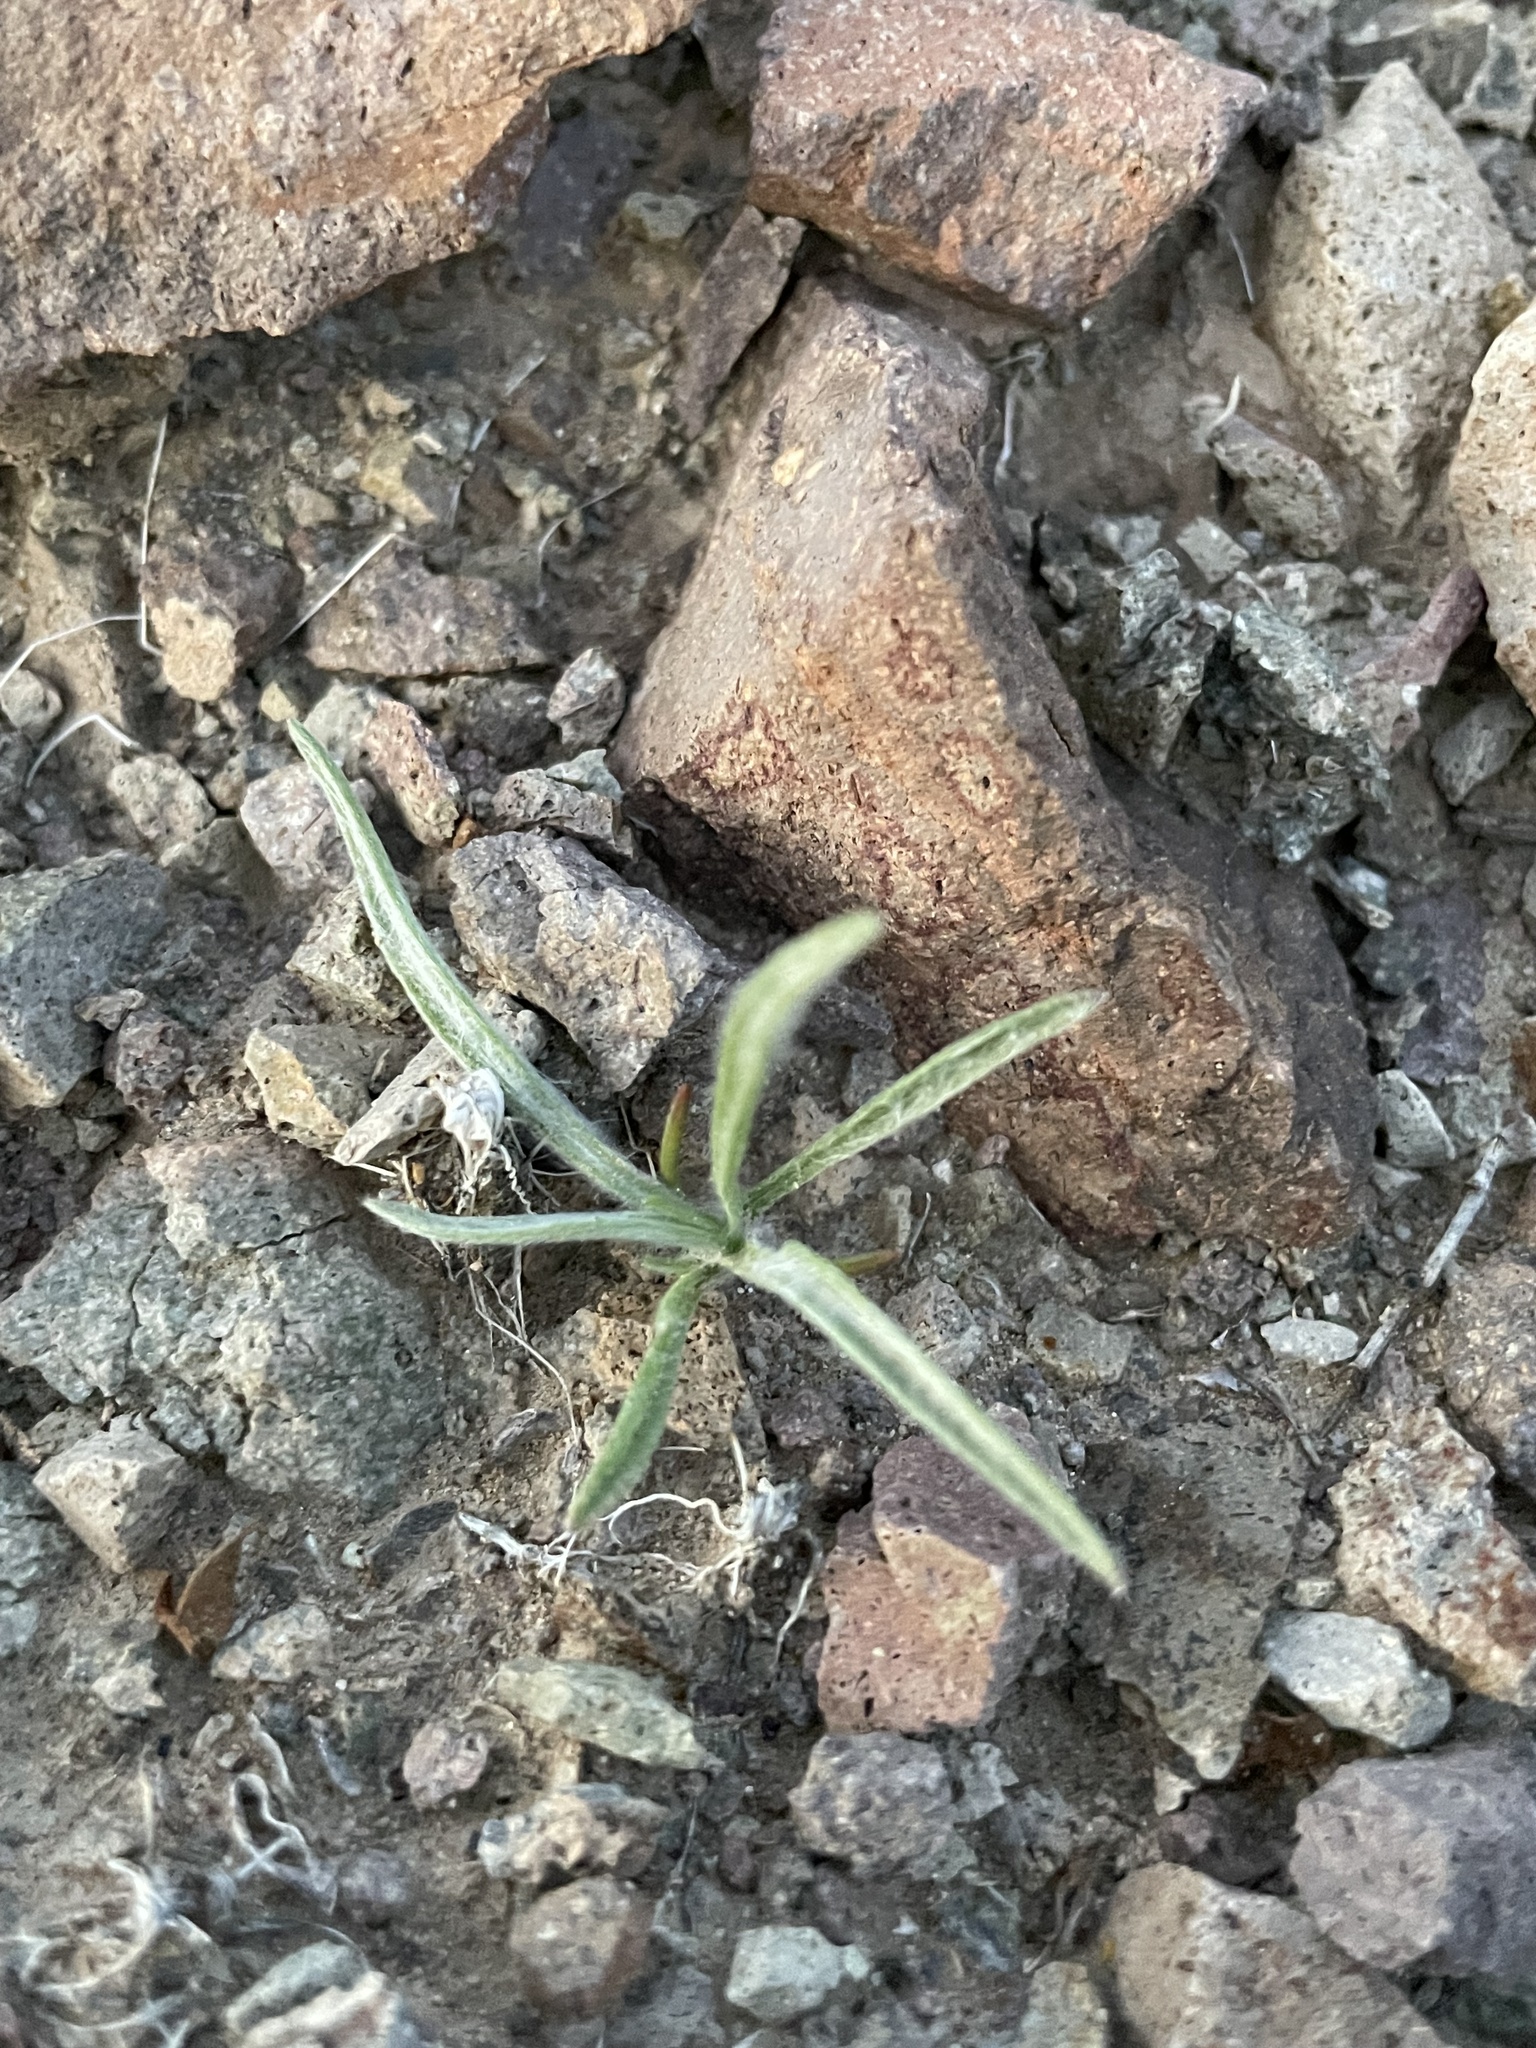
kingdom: Plantae
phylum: Tracheophyta
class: Magnoliopsida
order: Lamiales
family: Plantaginaceae
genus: Plantago
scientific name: Plantago ovata
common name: Blond plantain
